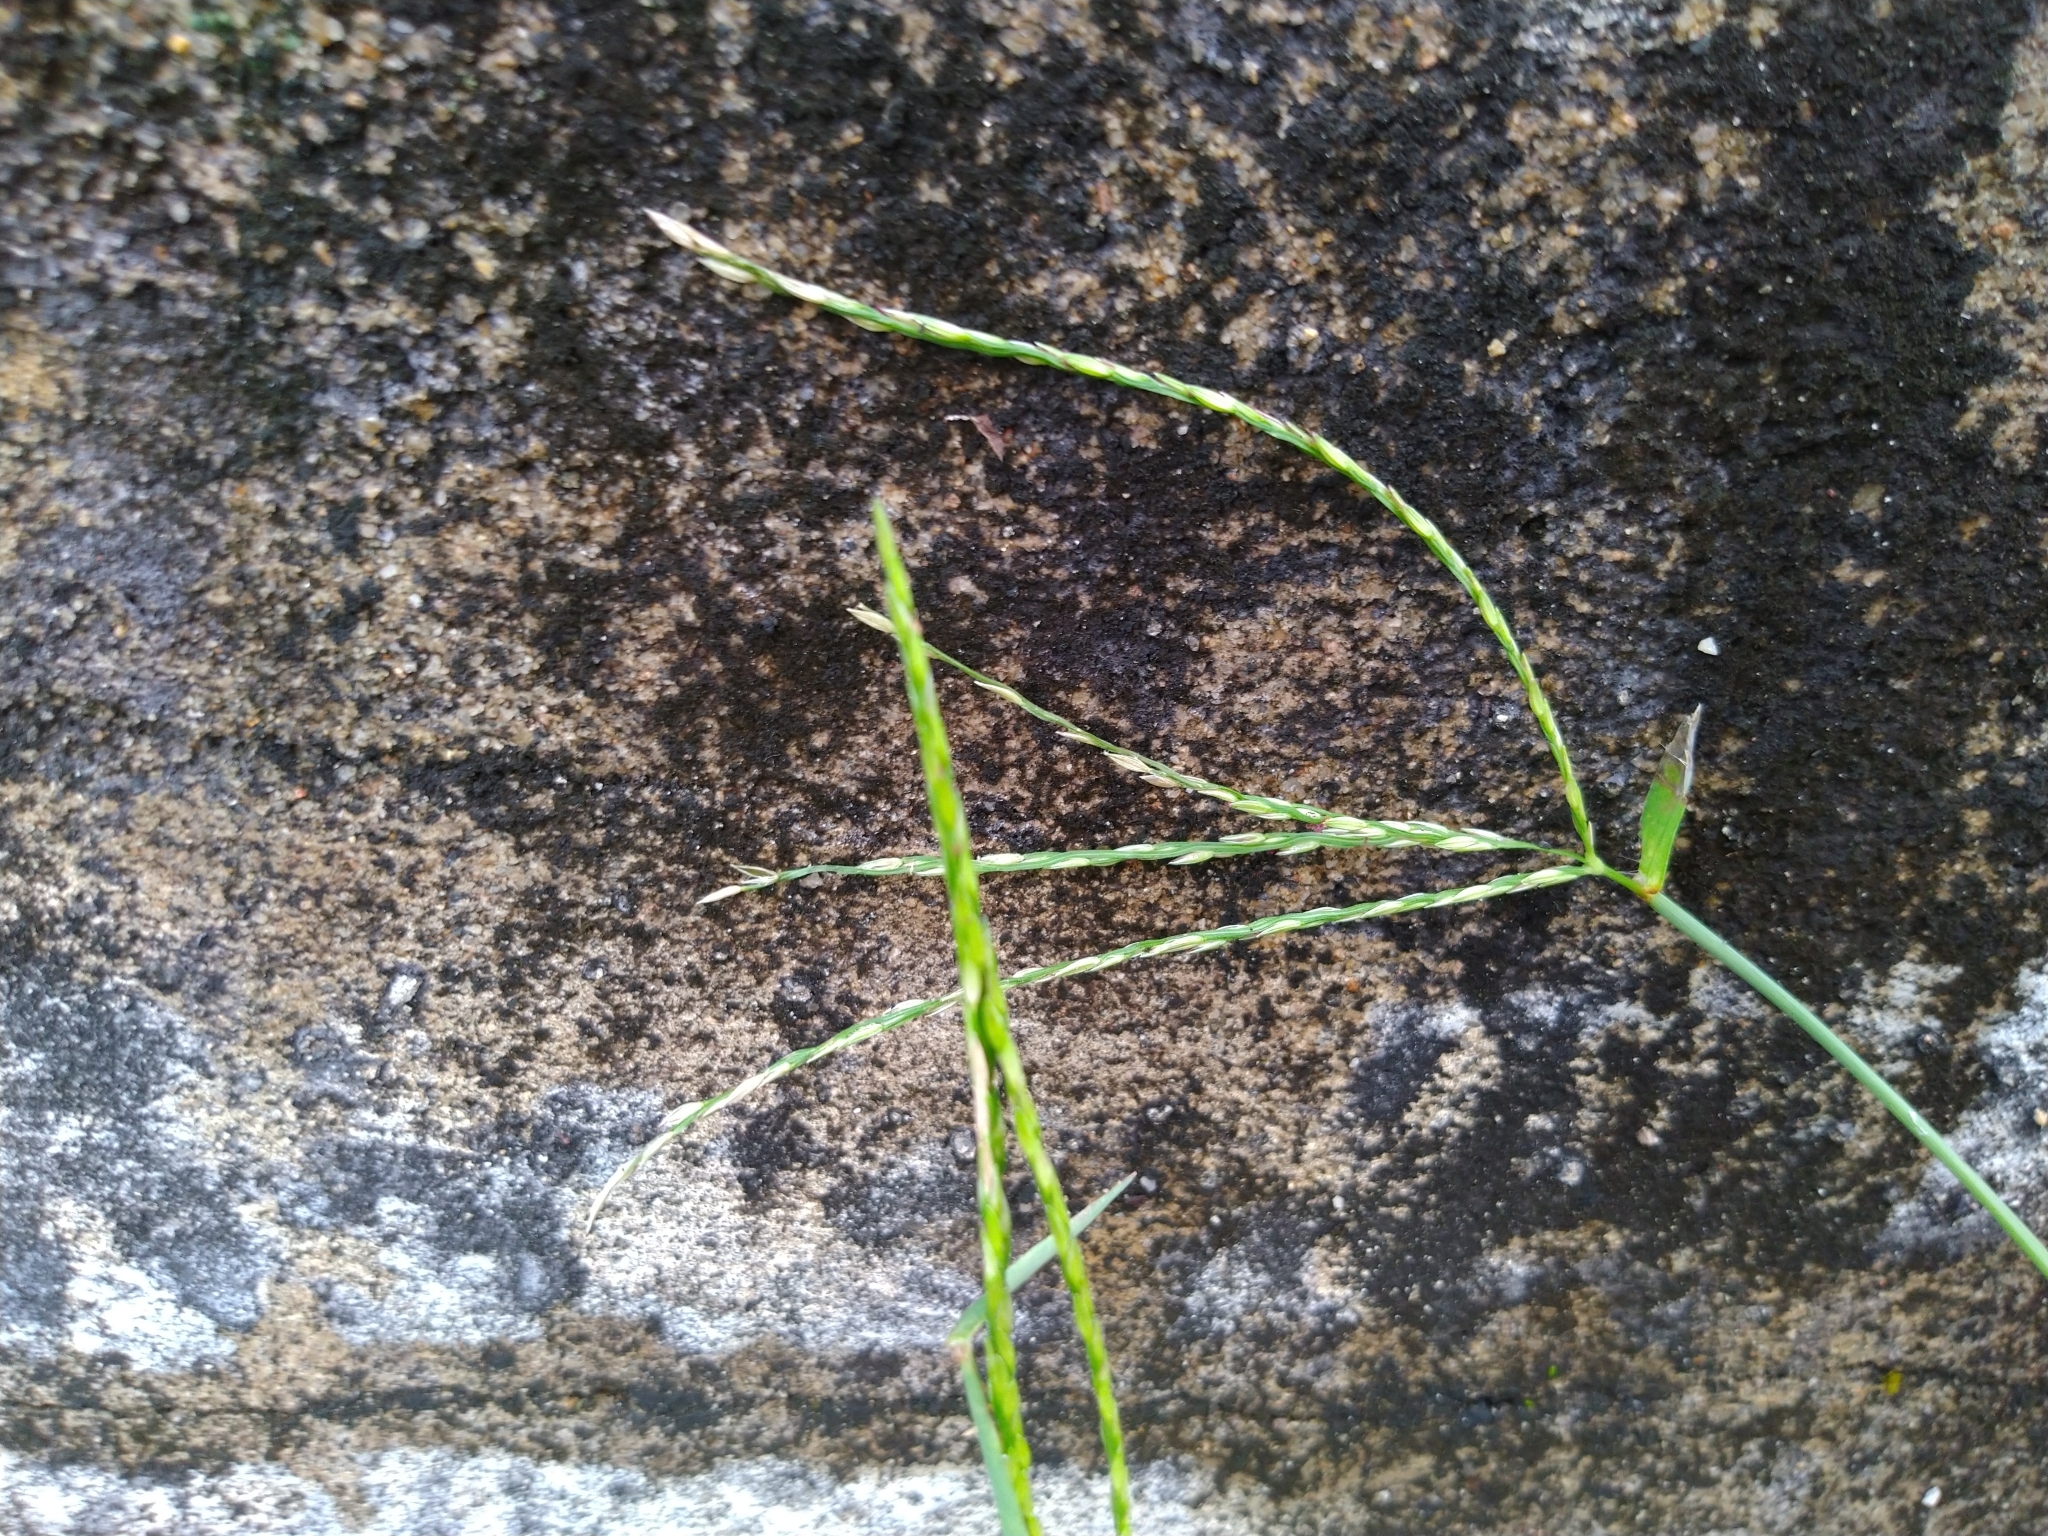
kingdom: Plantae
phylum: Tracheophyta
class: Liliopsida
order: Poales
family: Poaceae
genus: Digitaria
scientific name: Digitaria ciliaris
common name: Tropical finger-grass
